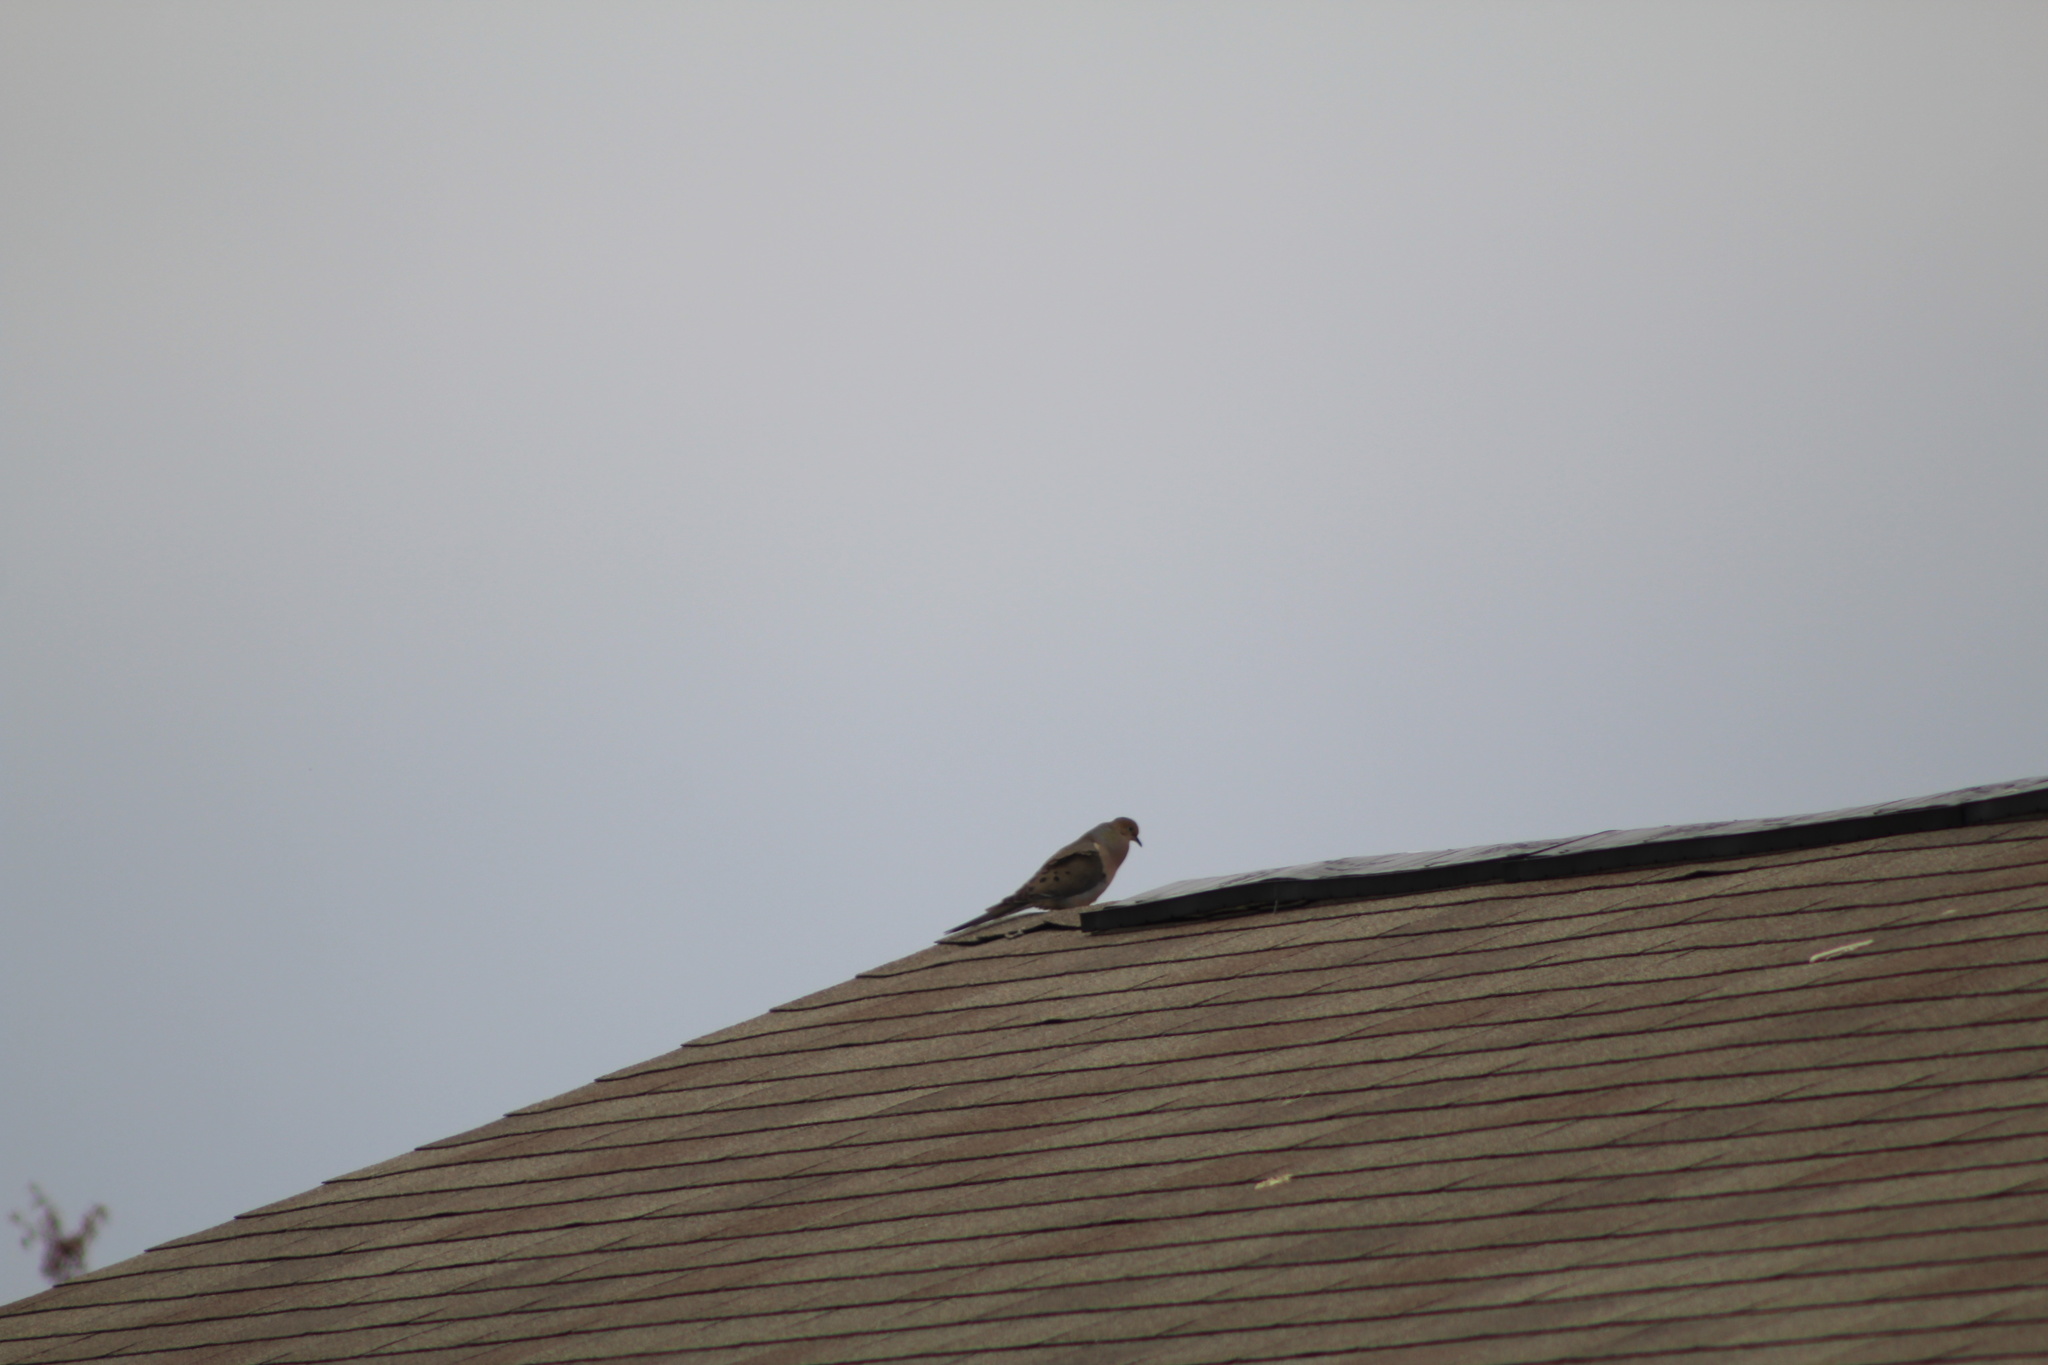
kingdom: Animalia
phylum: Chordata
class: Aves
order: Columbiformes
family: Columbidae
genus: Zenaida
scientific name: Zenaida macroura
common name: Mourning dove
